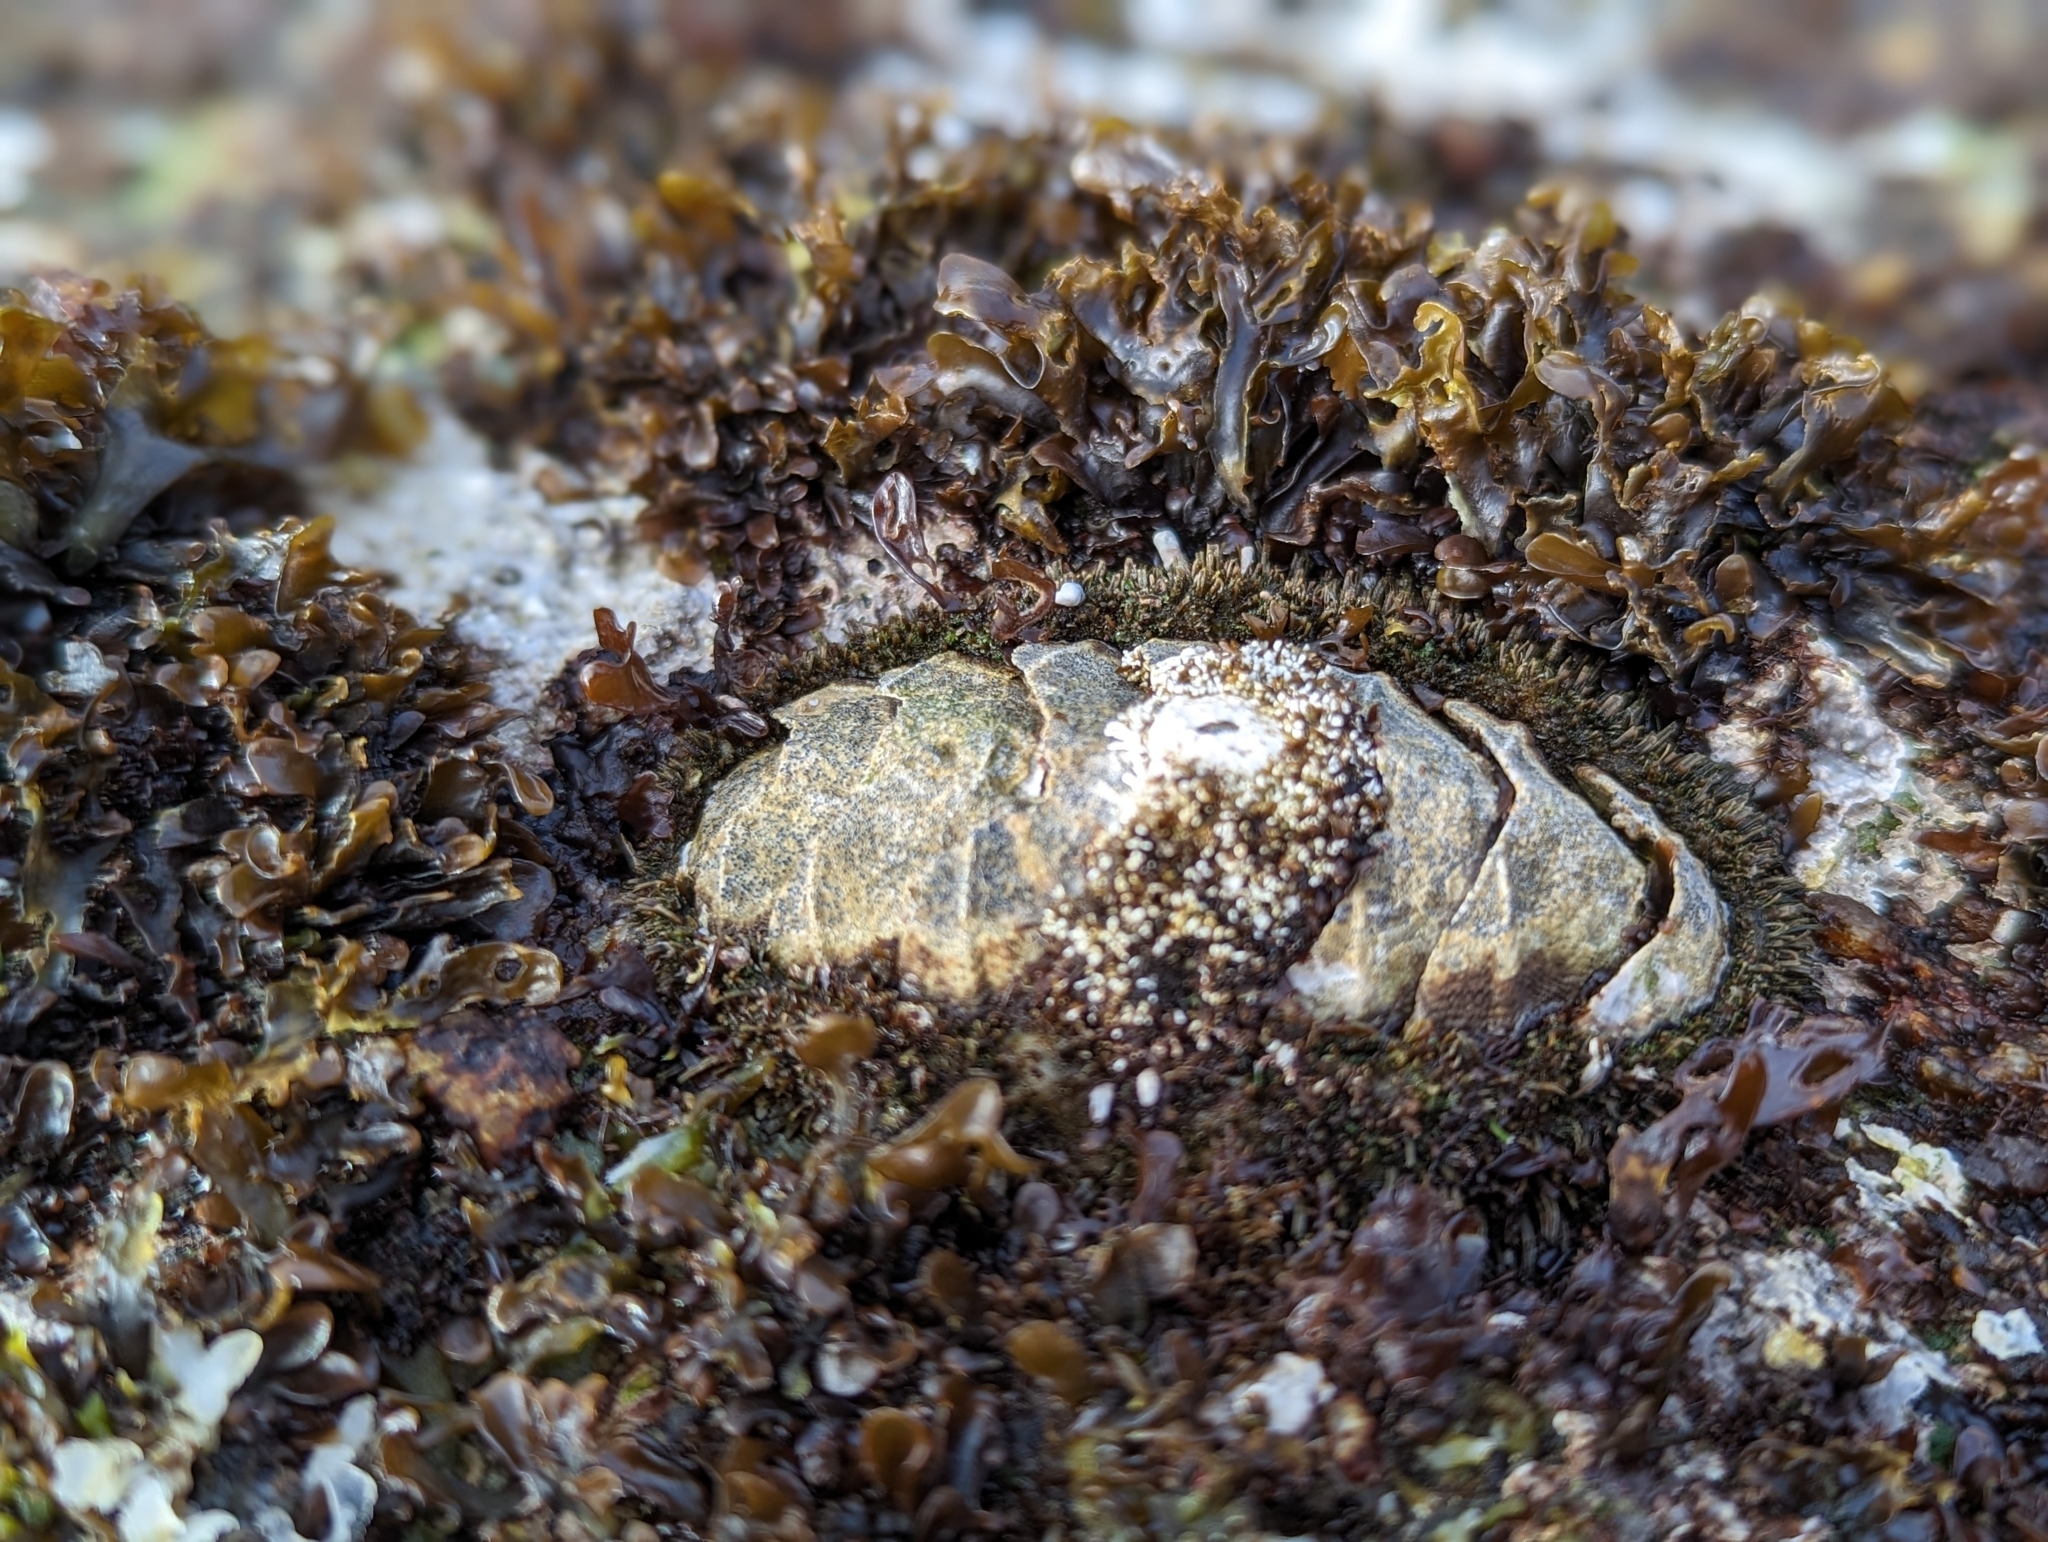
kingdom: Animalia
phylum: Mollusca
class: Polyplacophora
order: Chitonida
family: Mopaliidae
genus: Mopalia
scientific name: Mopalia muscosa
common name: Mossy chiton
